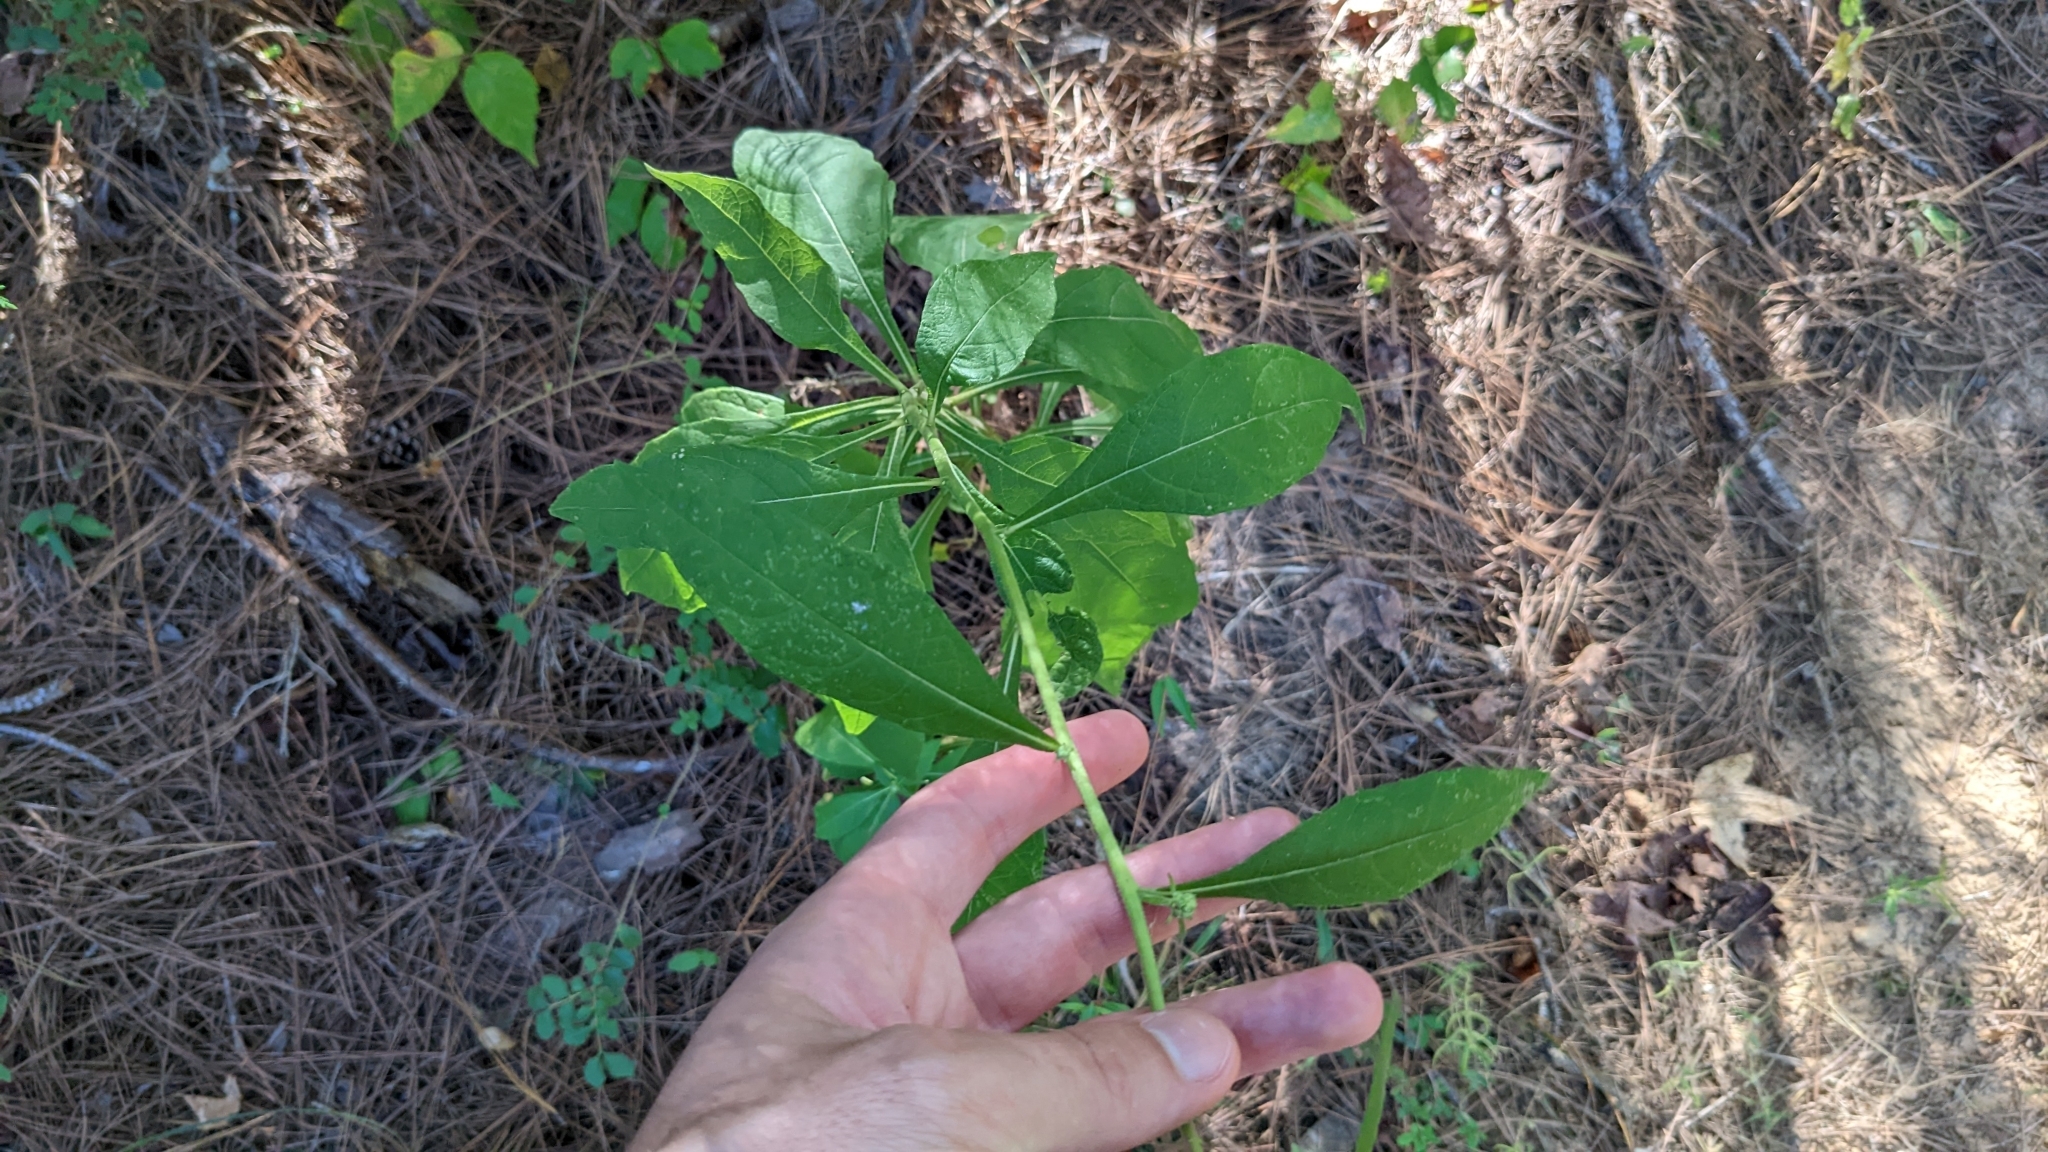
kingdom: Plantae
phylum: Tracheophyta
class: Magnoliopsida
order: Asterales
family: Asteraceae
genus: Verbesina
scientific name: Verbesina virginica
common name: Frostweed
